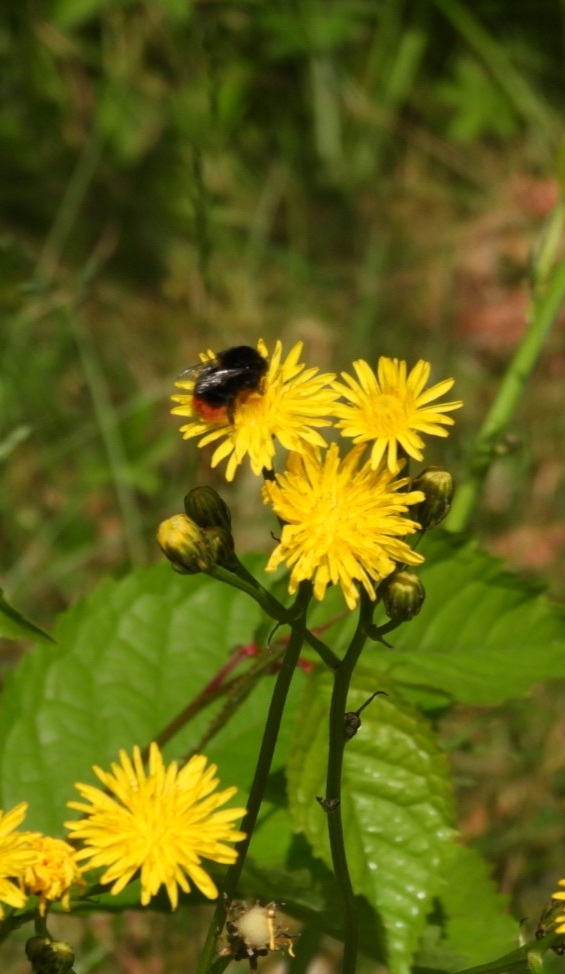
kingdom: Animalia
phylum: Arthropoda
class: Insecta
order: Hymenoptera
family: Apidae
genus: Bombus
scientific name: Bombus lapidarius
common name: Large red-tailed humble-bee
